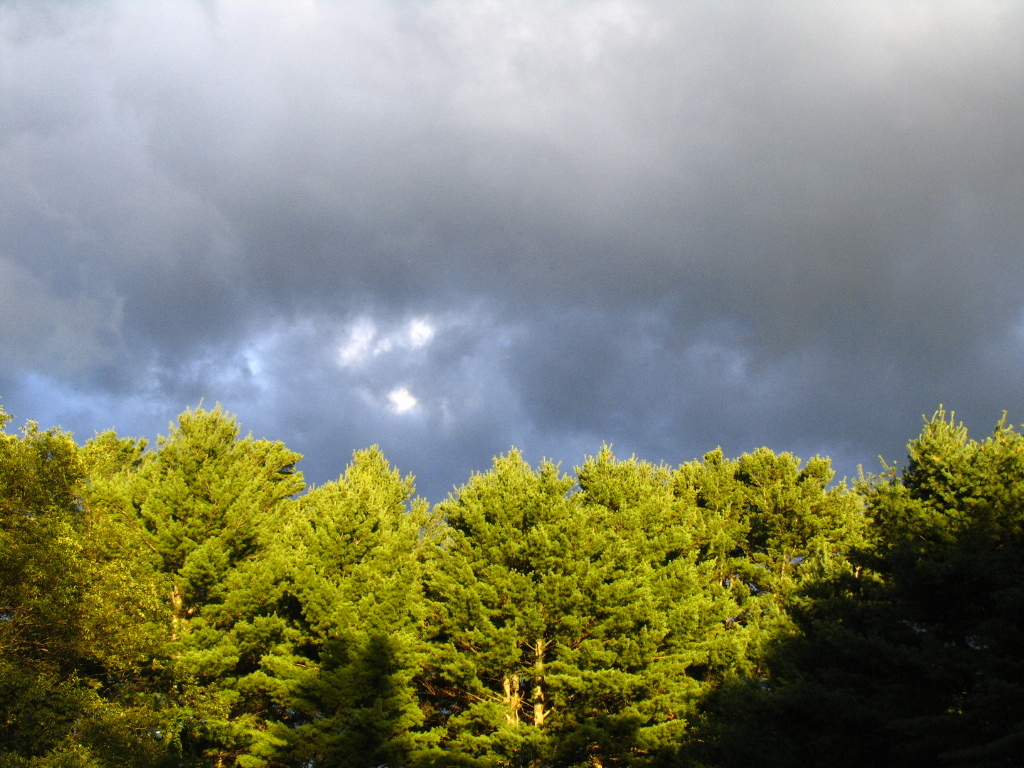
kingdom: Plantae
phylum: Tracheophyta
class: Pinopsida
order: Pinales
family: Pinaceae
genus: Pinus
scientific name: Pinus strobus
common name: Weymouth pine
